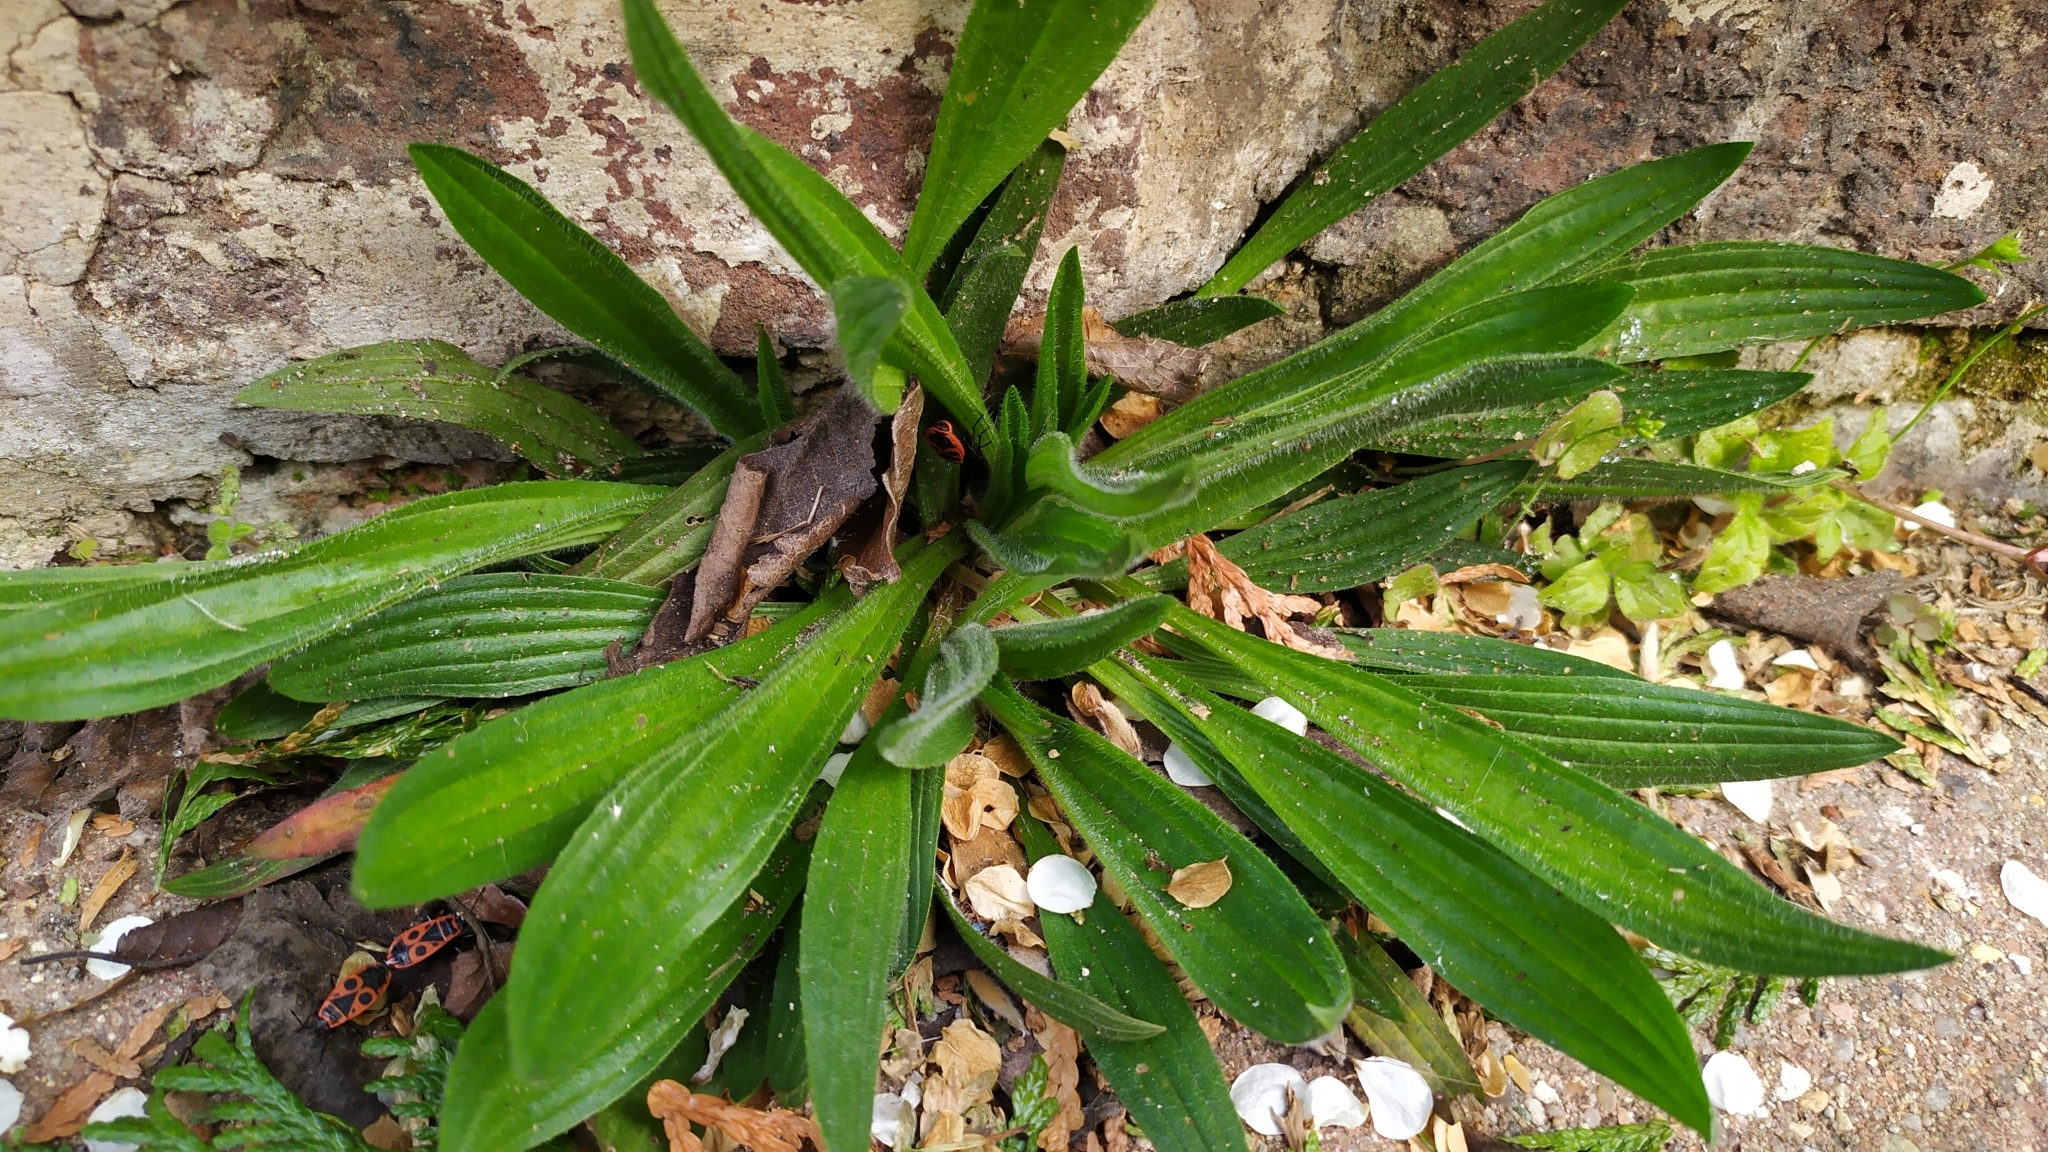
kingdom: Plantae
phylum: Tracheophyta
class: Magnoliopsida
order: Lamiales
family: Plantaginaceae
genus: Plantago
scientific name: Plantago lanceolata
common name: Ribwort plantain
